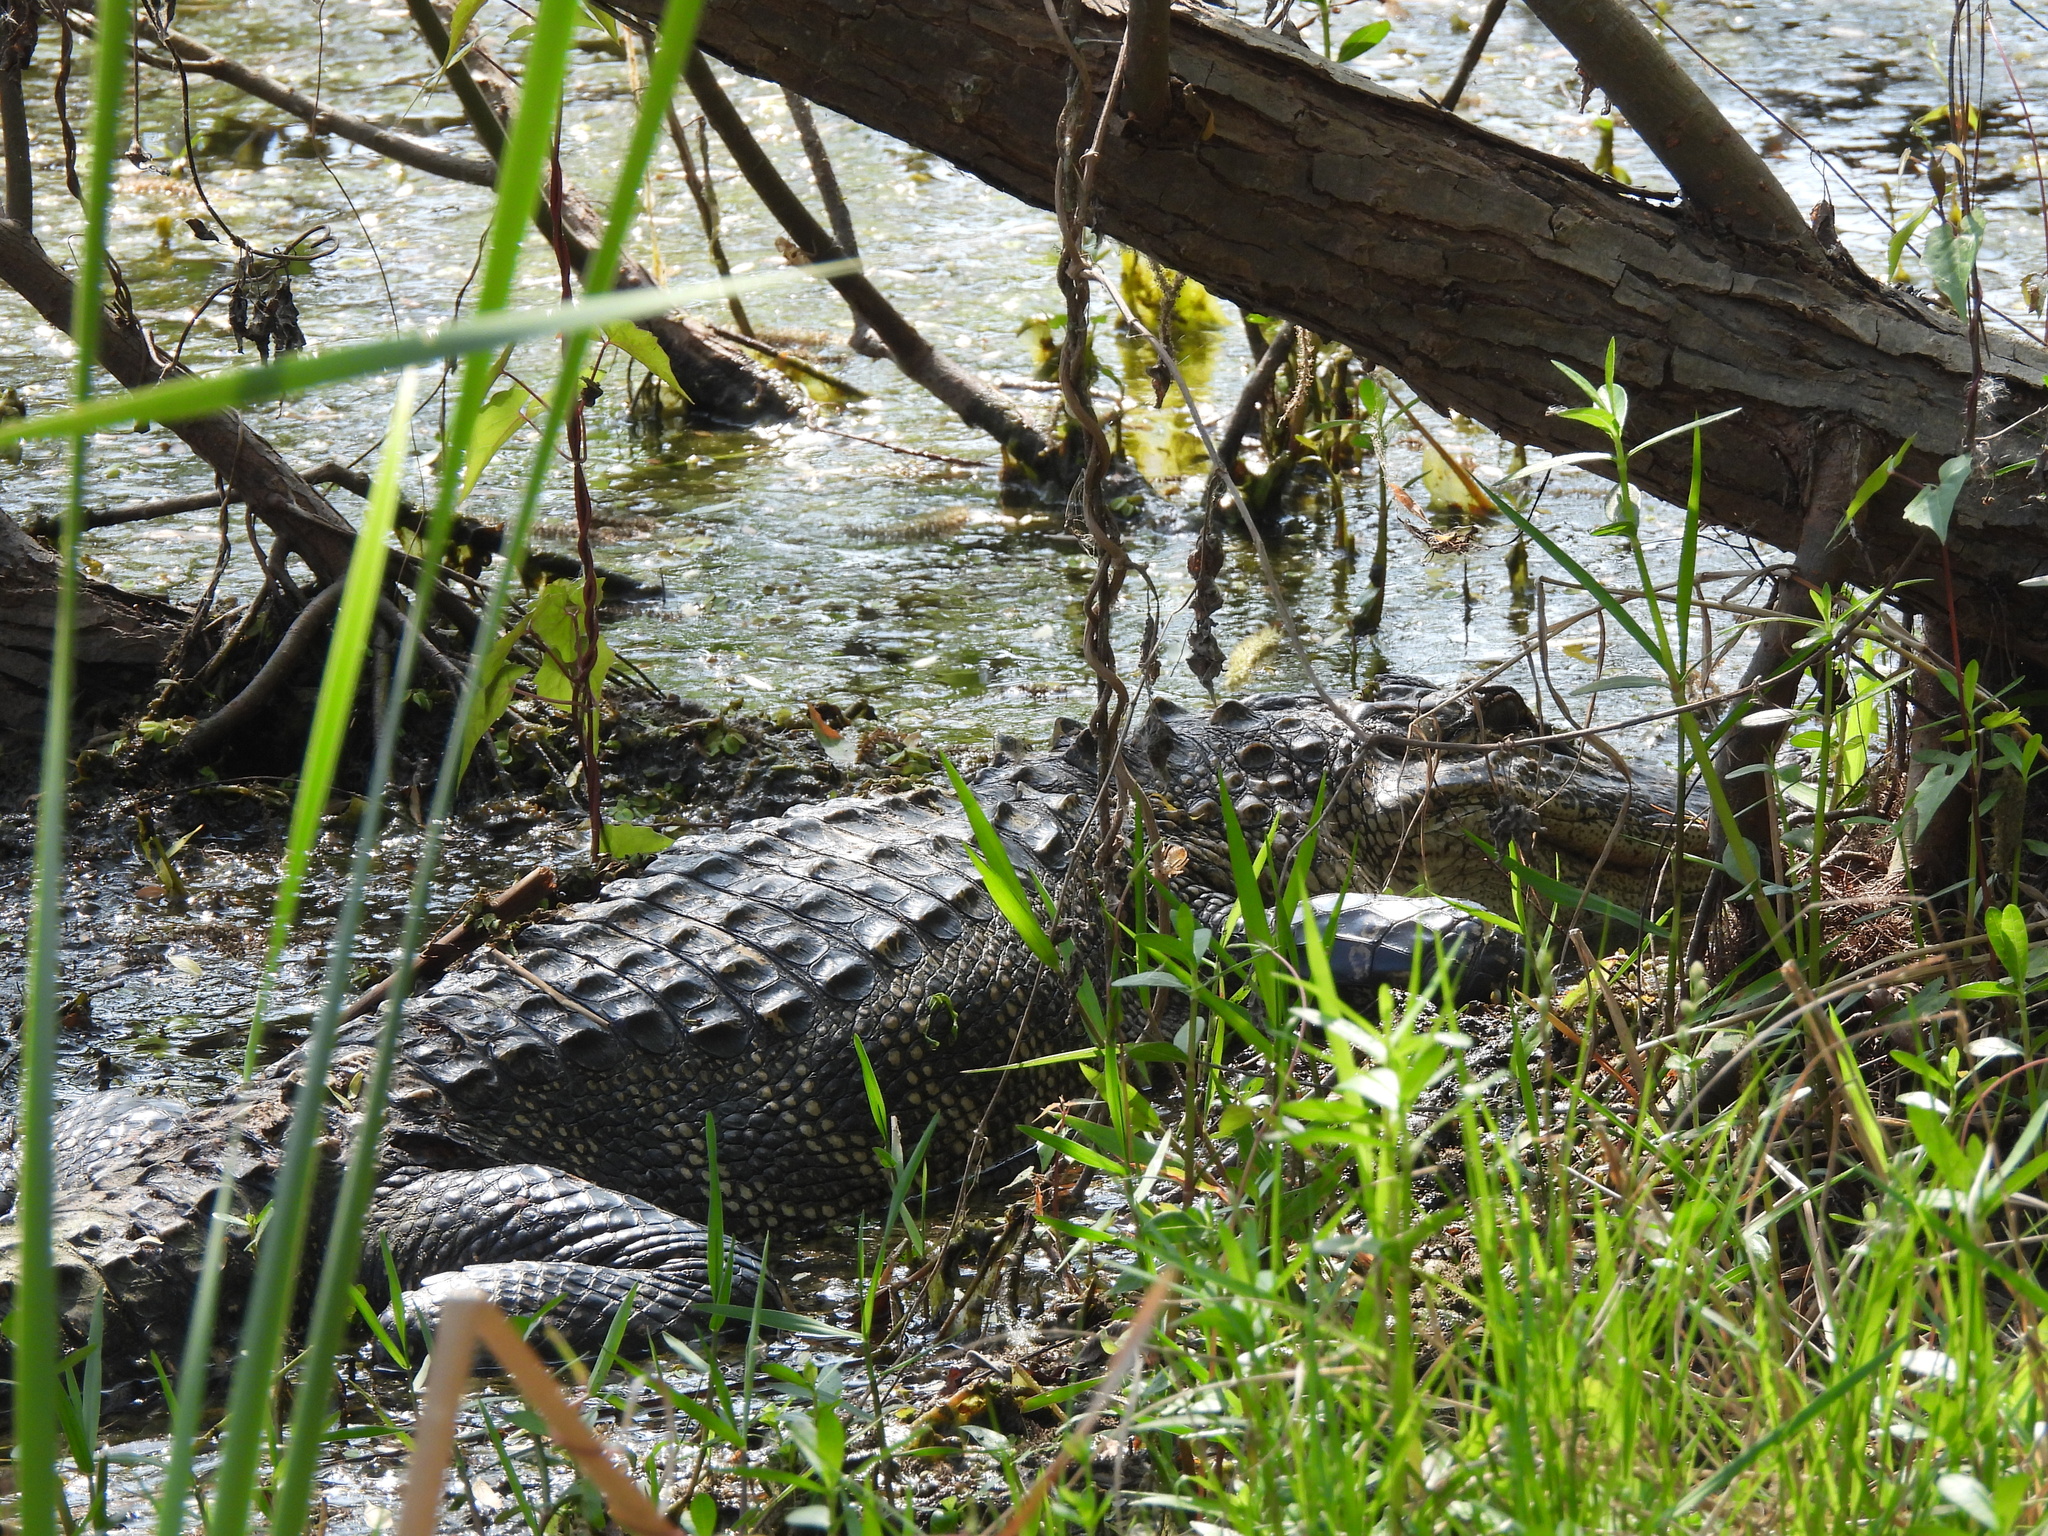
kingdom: Animalia
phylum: Chordata
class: Crocodylia
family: Alligatoridae
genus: Alligator
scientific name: Alligator mississippiensis
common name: American alligator
